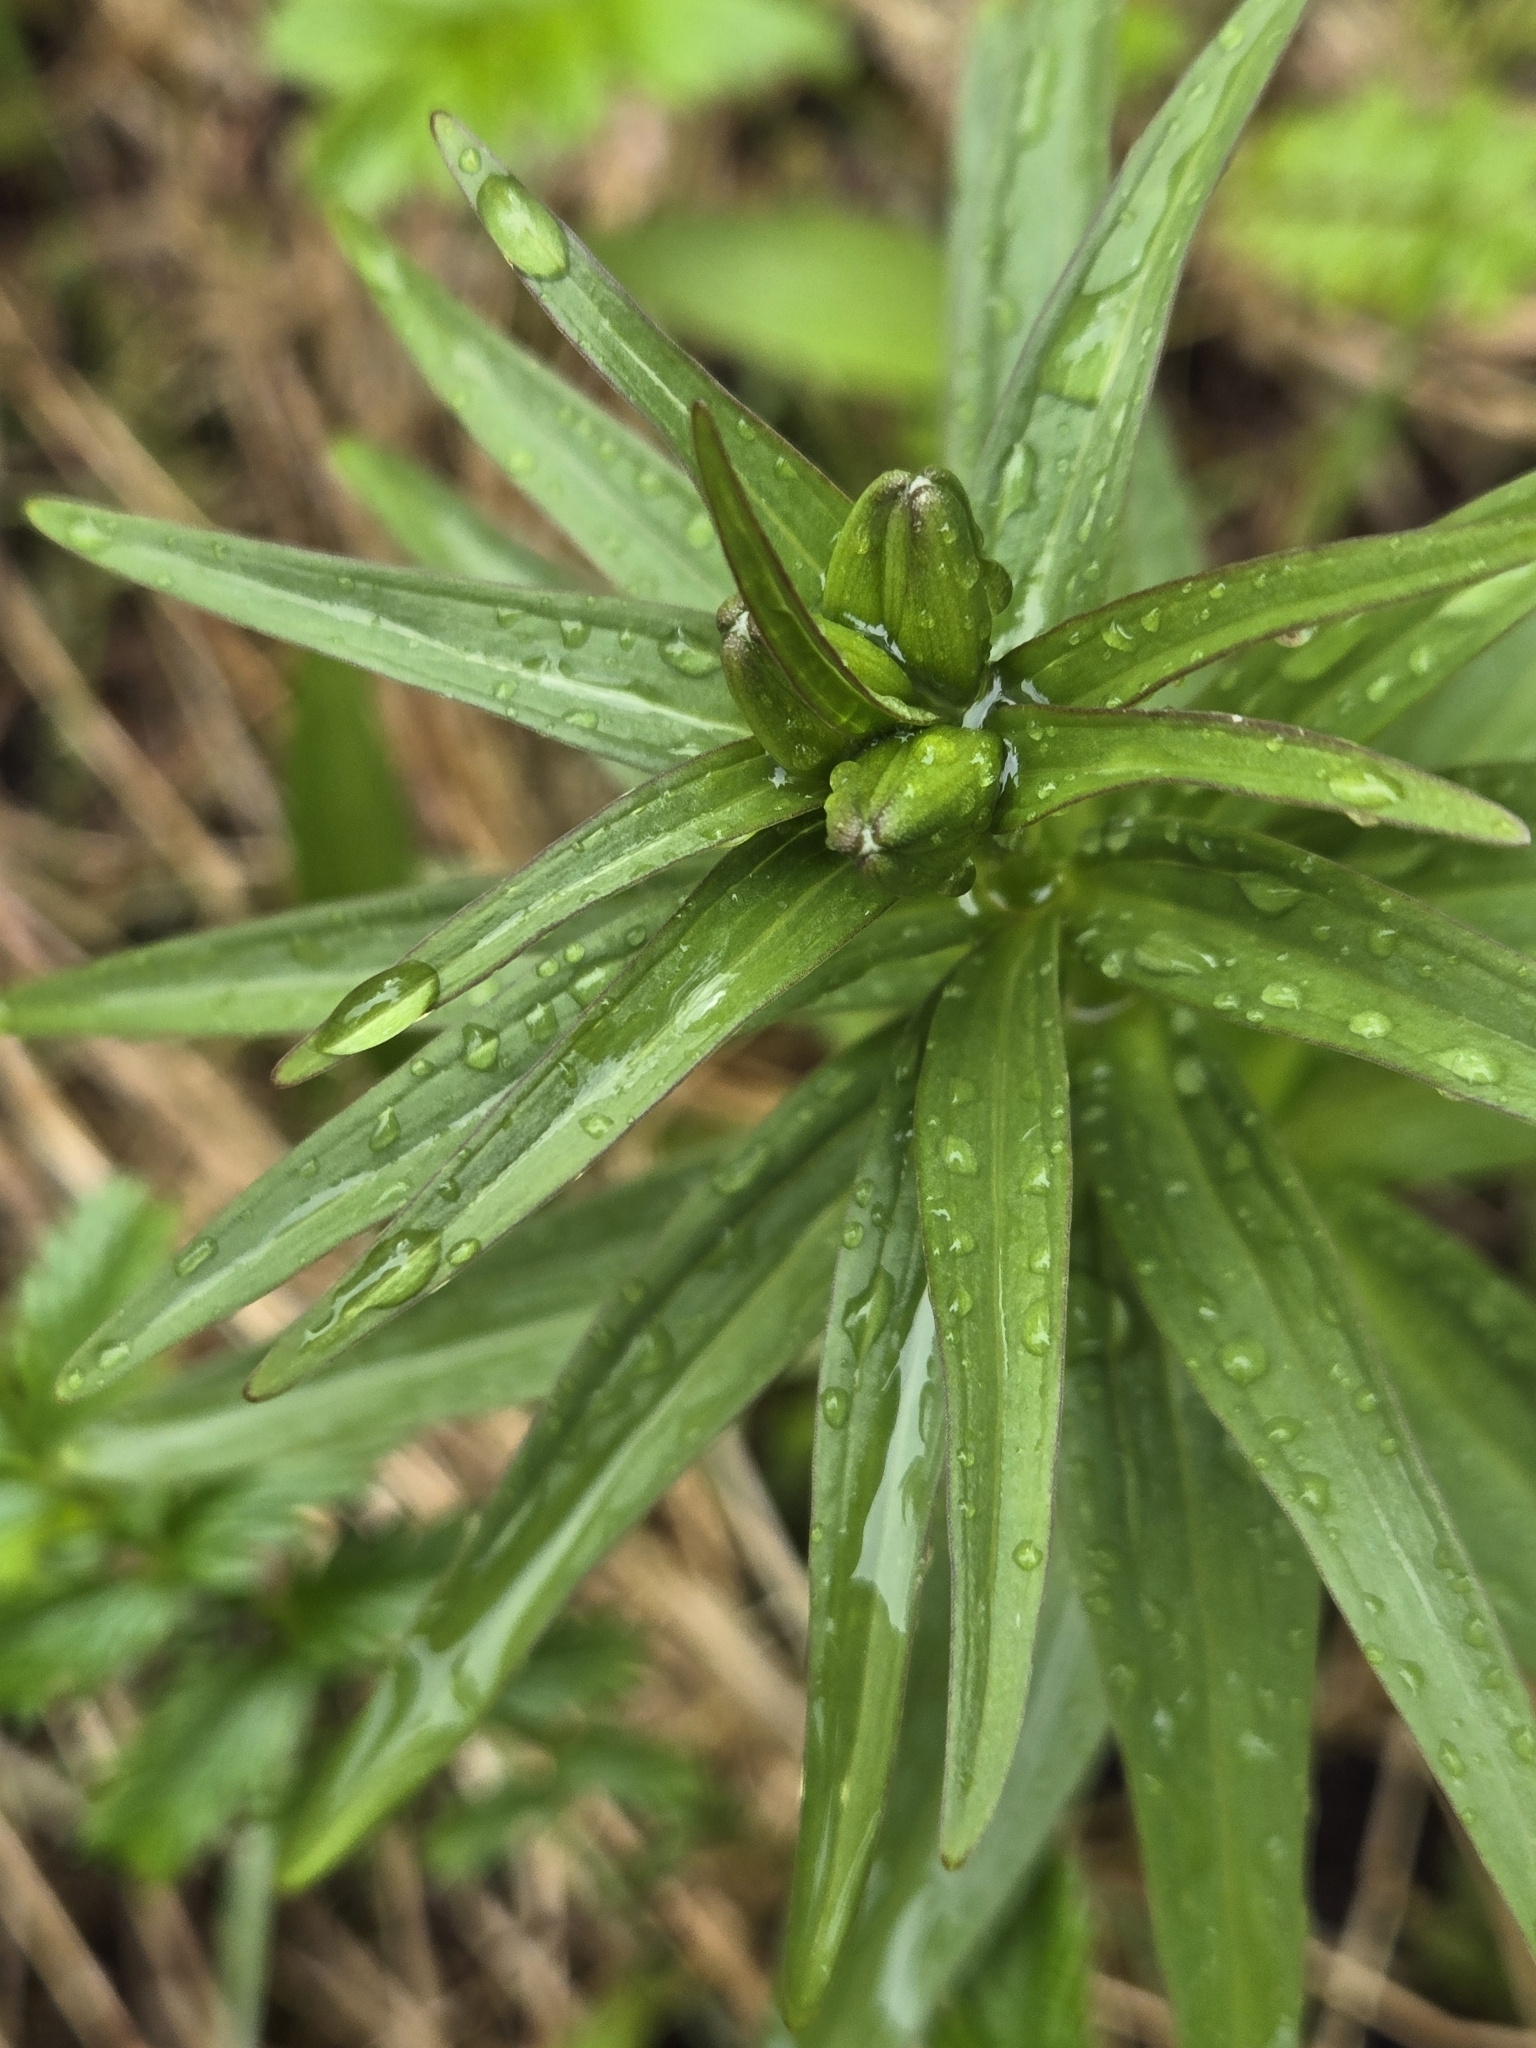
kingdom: Plantae
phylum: Tracheophyta
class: Liliopsida
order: Liliales
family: Liliaceae
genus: Fritillaria
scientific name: Fritillaria camschatcensis
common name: Kamchatka fritillary
